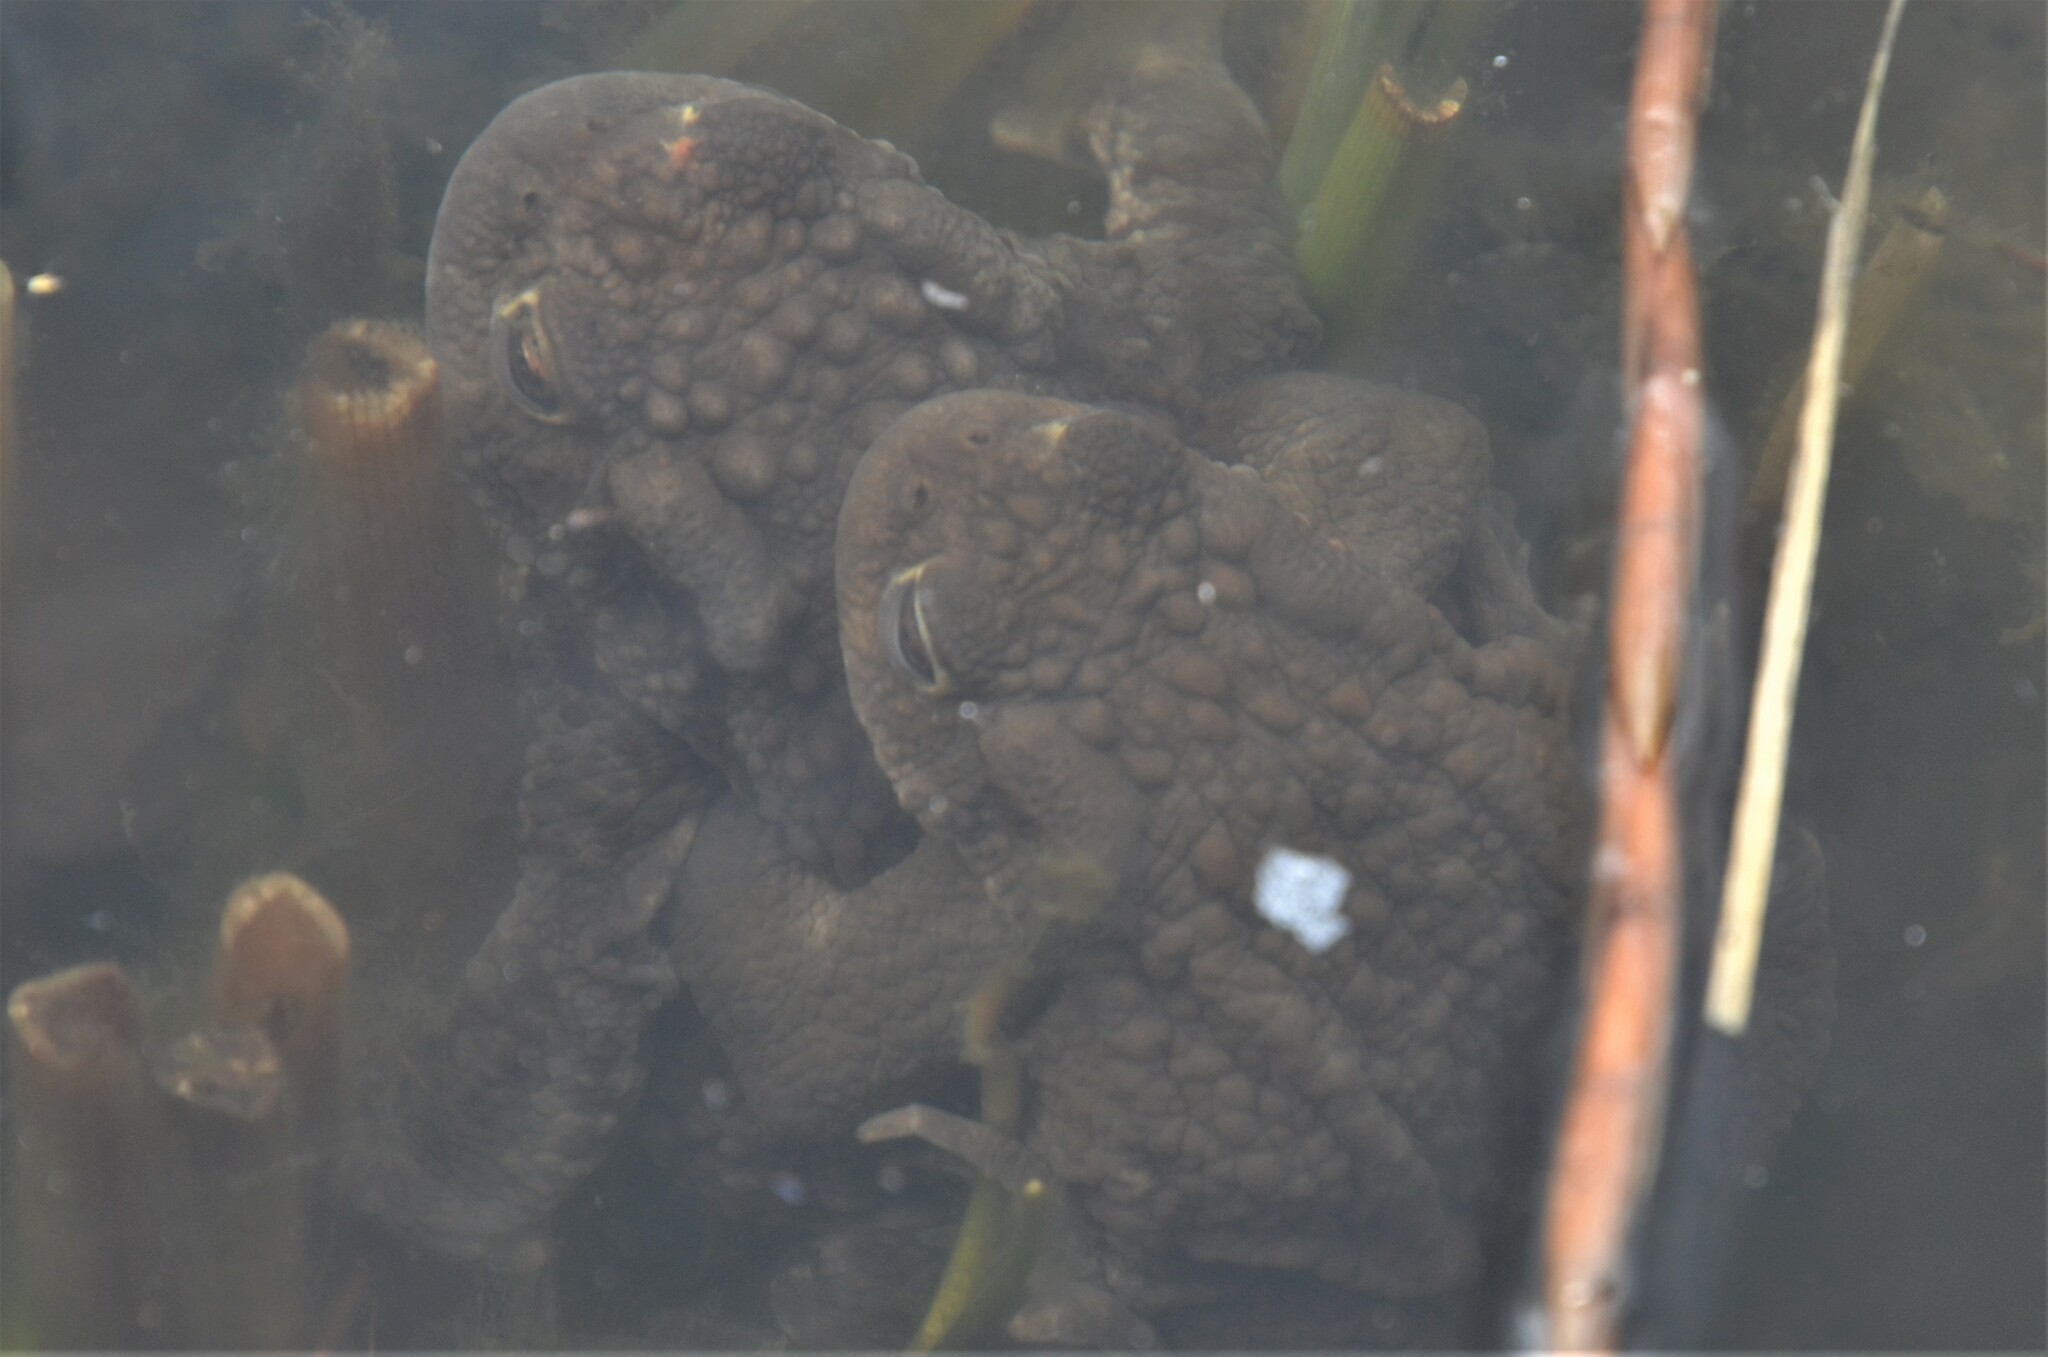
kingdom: Animalia
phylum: Chordata
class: Amphibia
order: Anura
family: Bufonidae
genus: Bufo
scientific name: Bufo bufo
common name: Common toad
